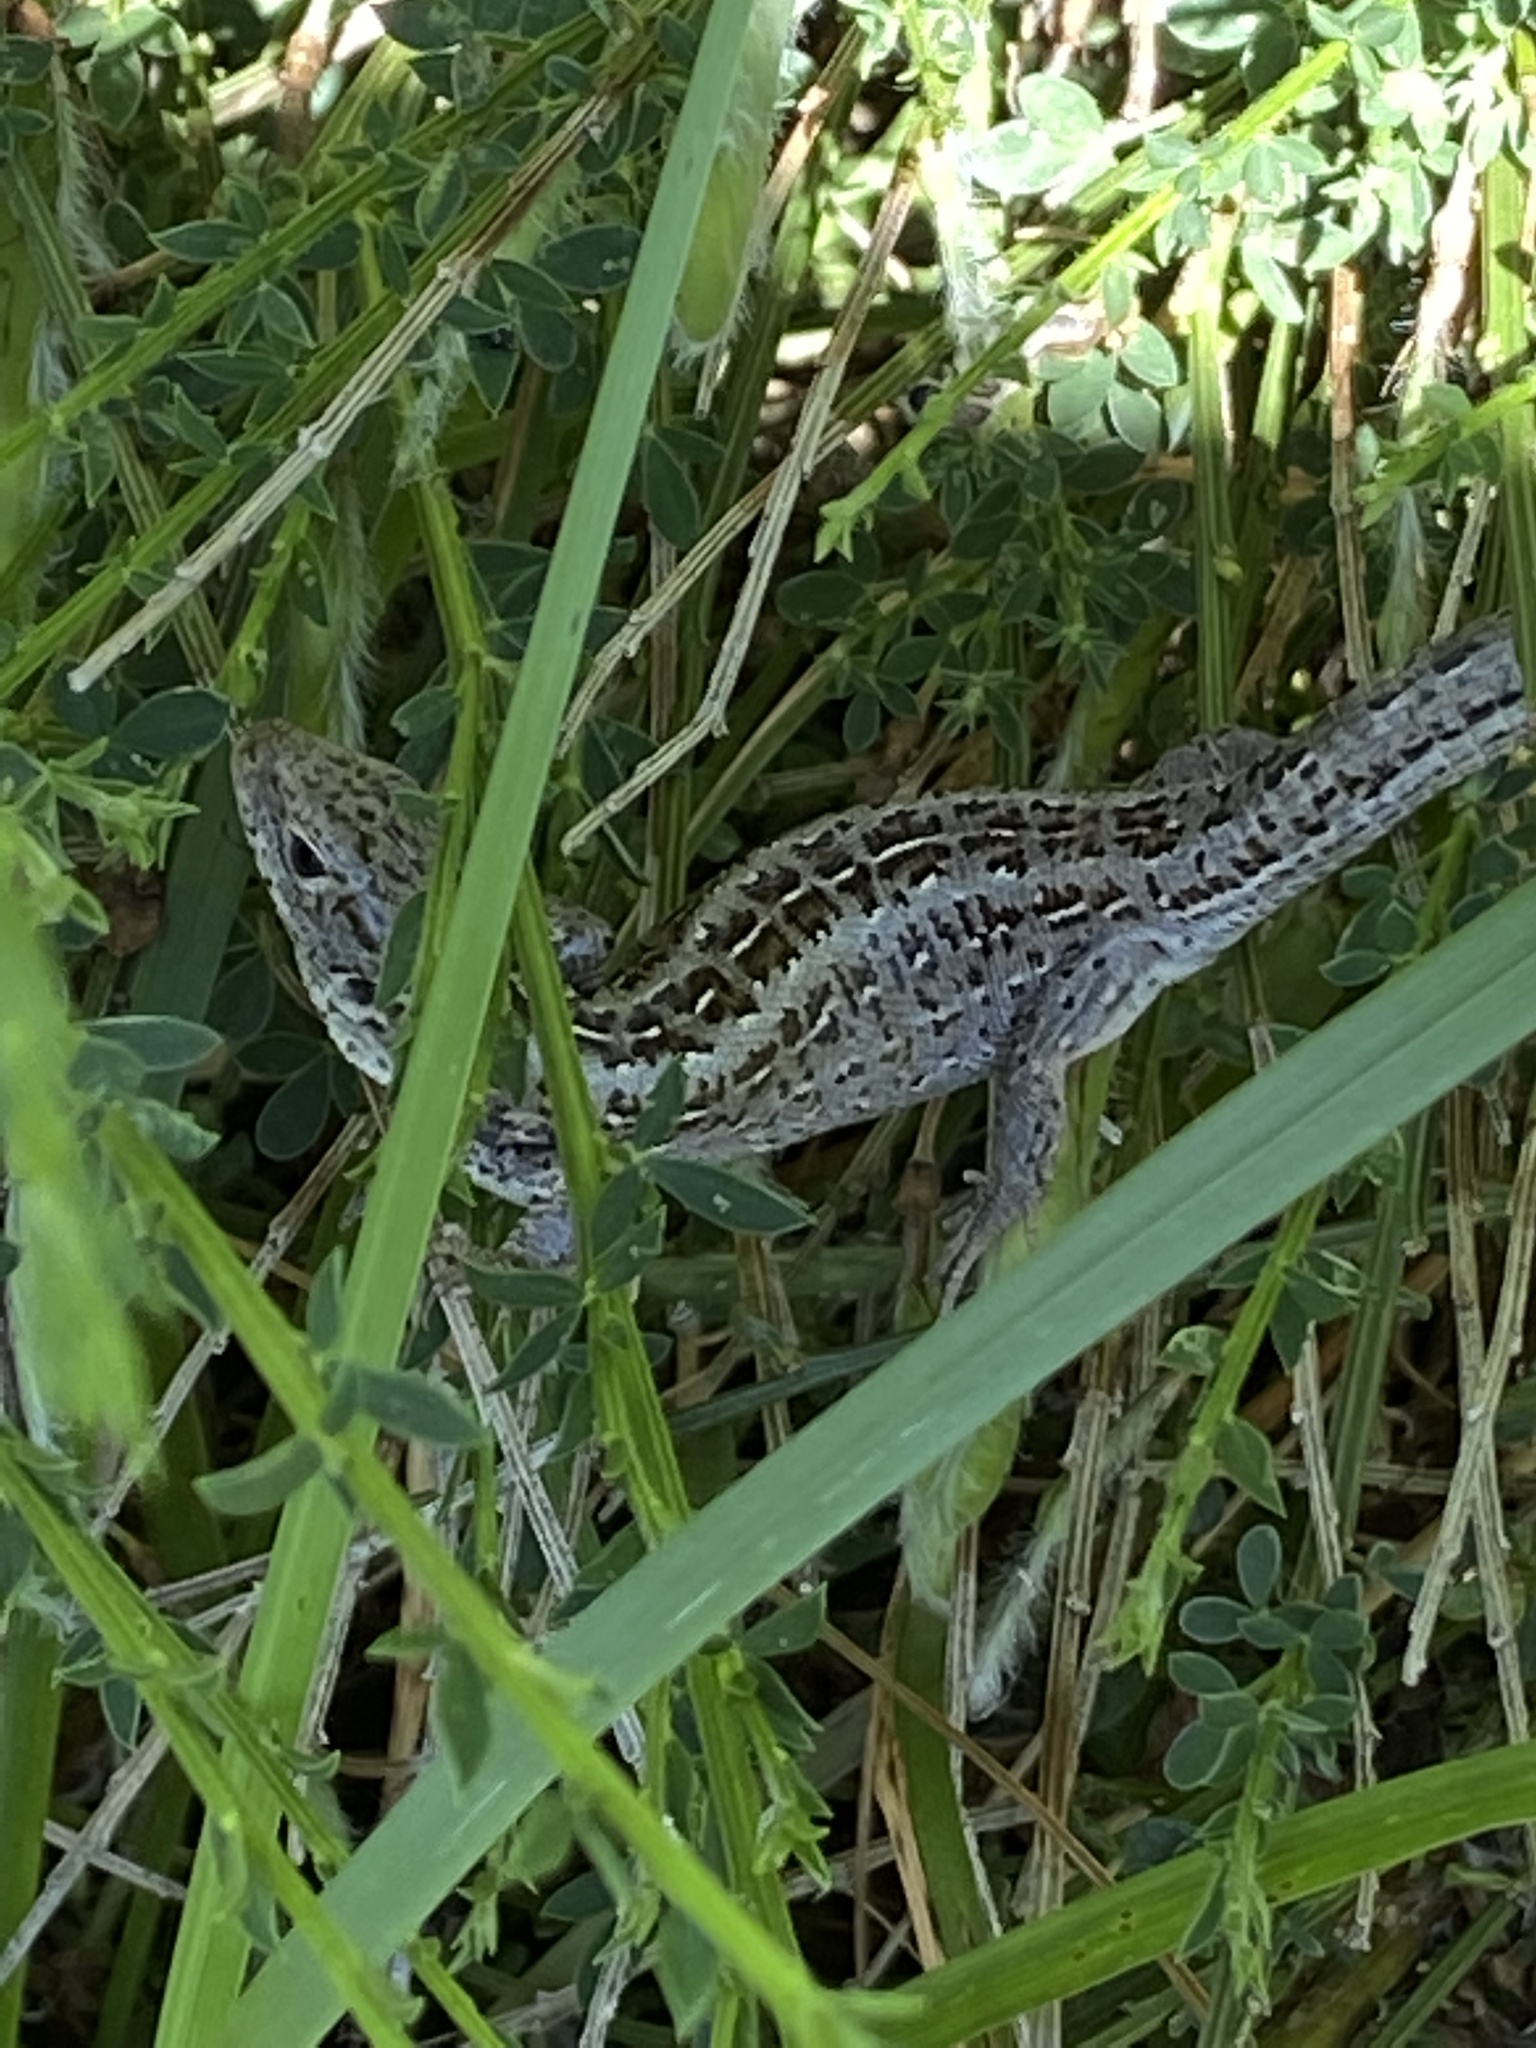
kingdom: Animalia
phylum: Chordata
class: Squamata
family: Lacertidae
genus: Lacerta
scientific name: Lacerta agilis
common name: Sand lizard
